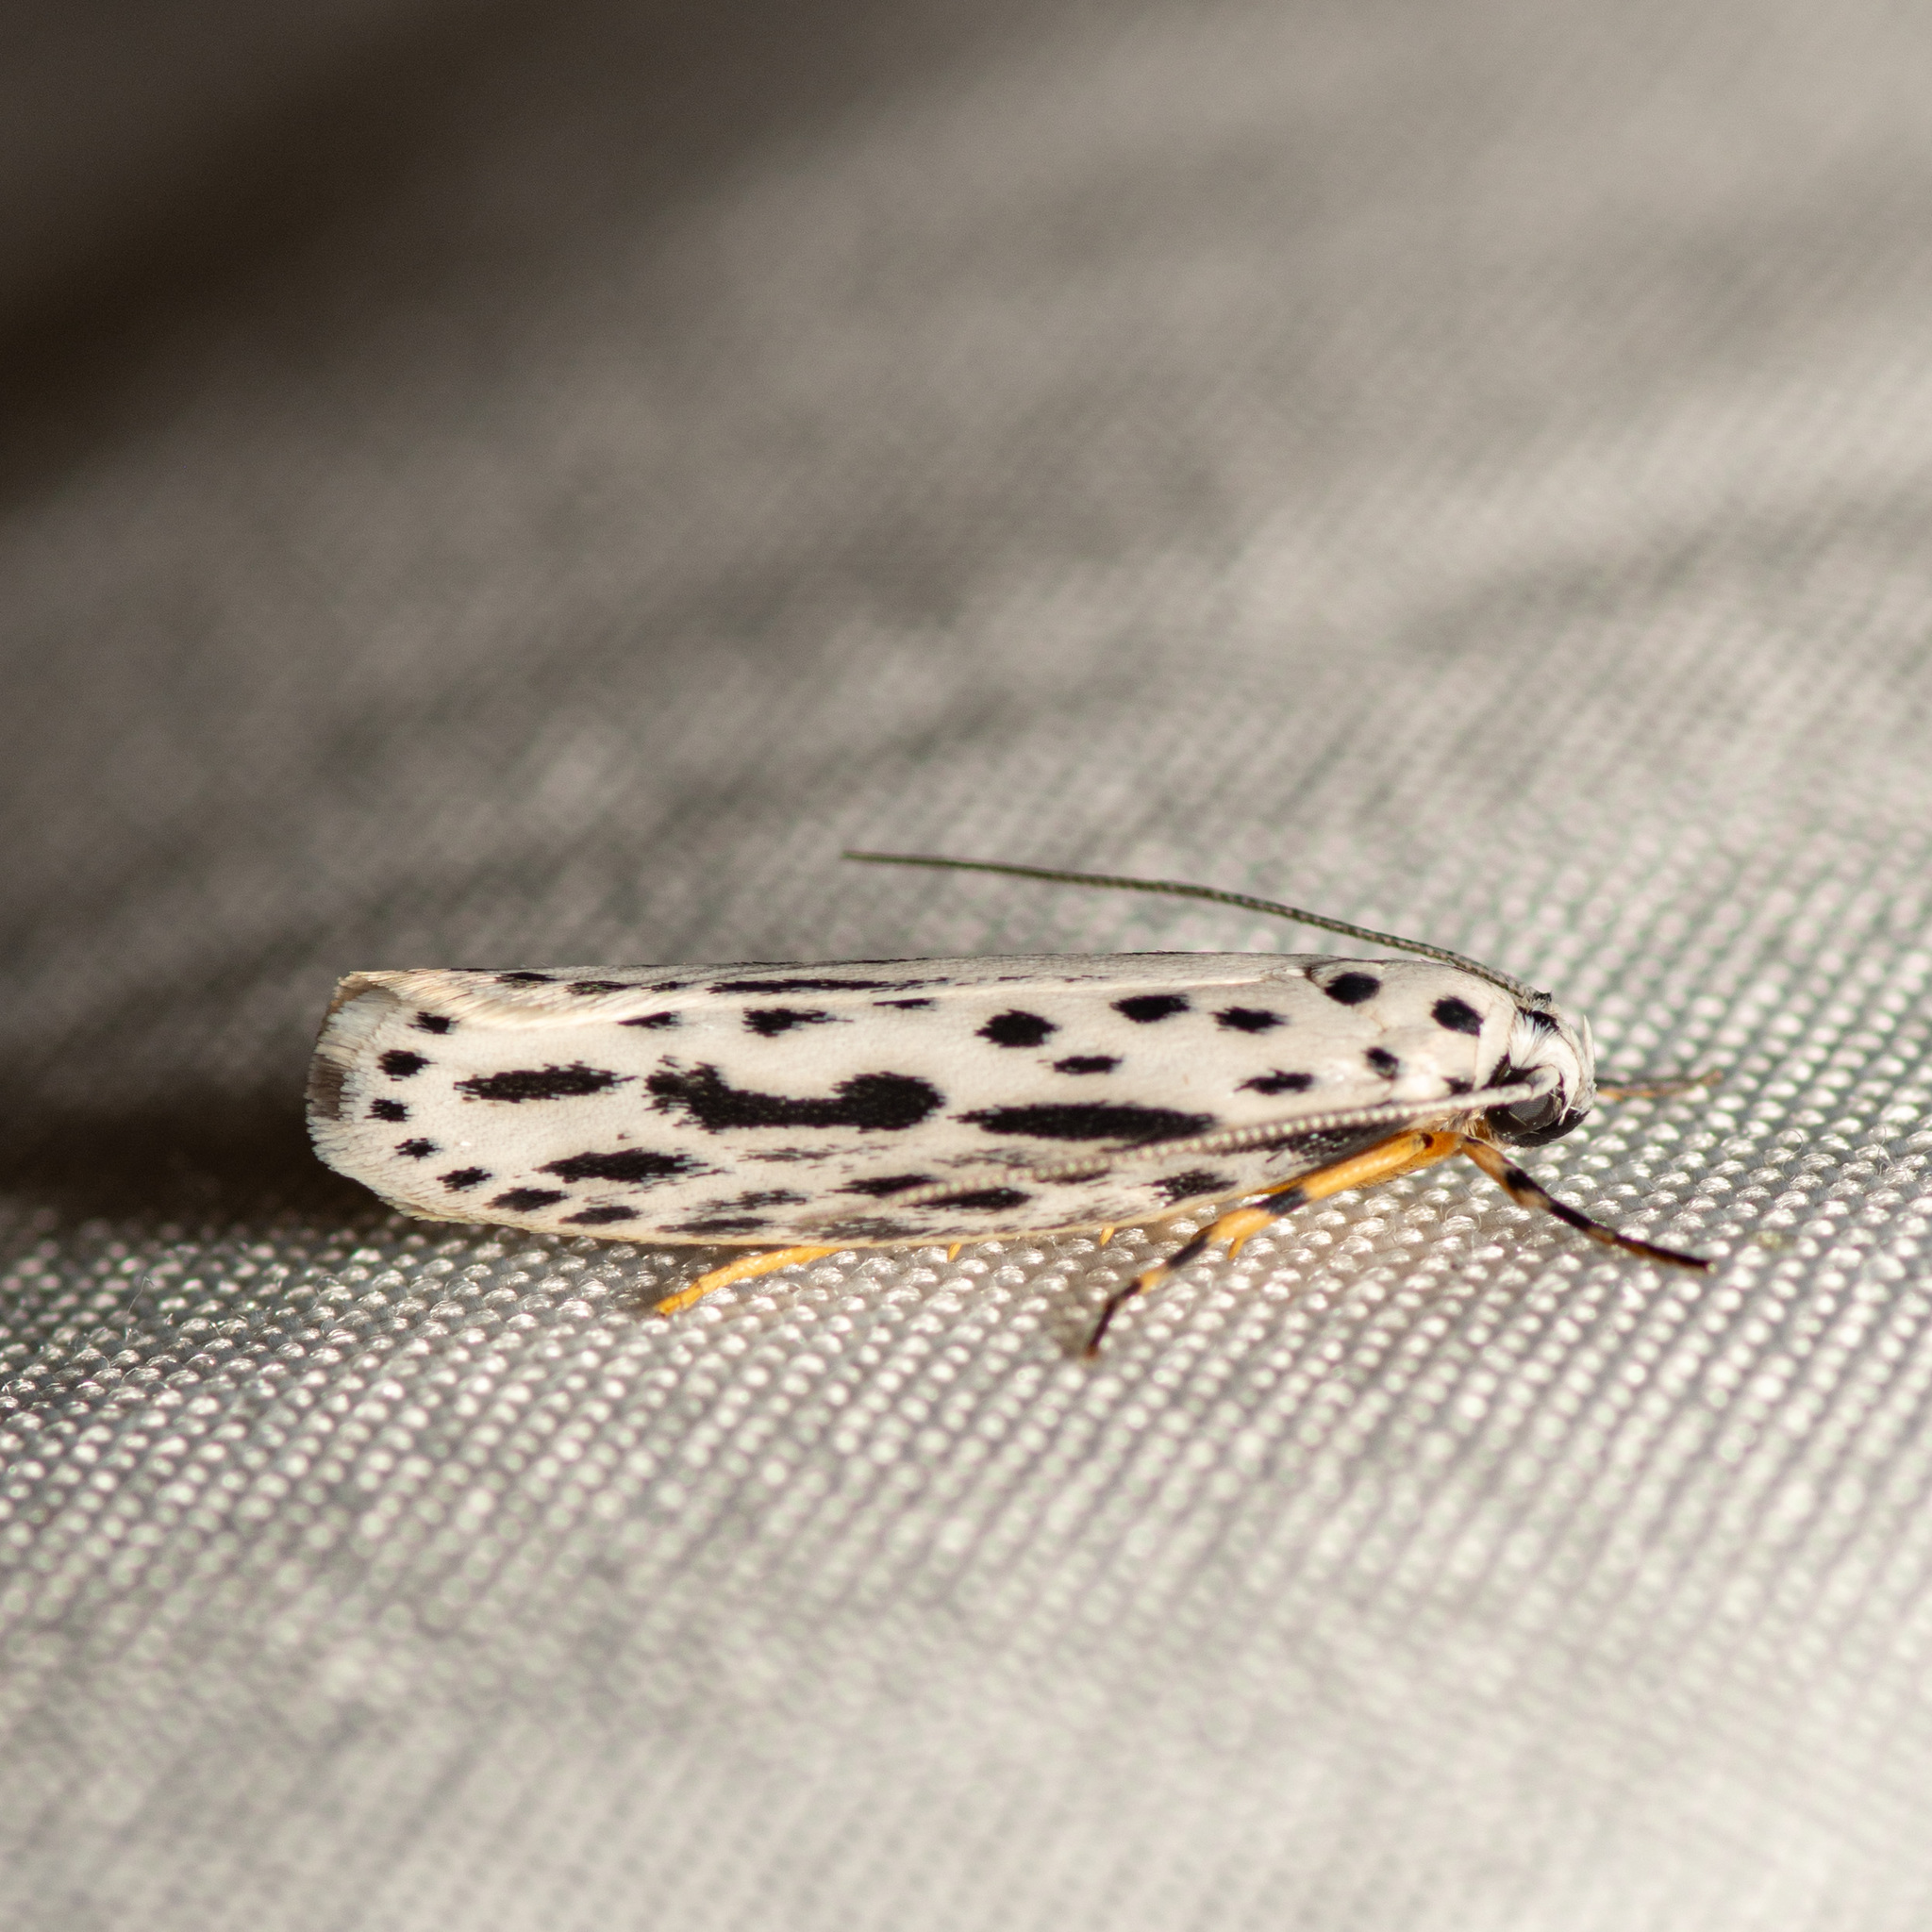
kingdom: Animalia
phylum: Arthropoda
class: Insecta
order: Lepidoptera
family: Ethmiidae
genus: Ethmia
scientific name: Ethmia zelleriella
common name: Zeller's ethmia
